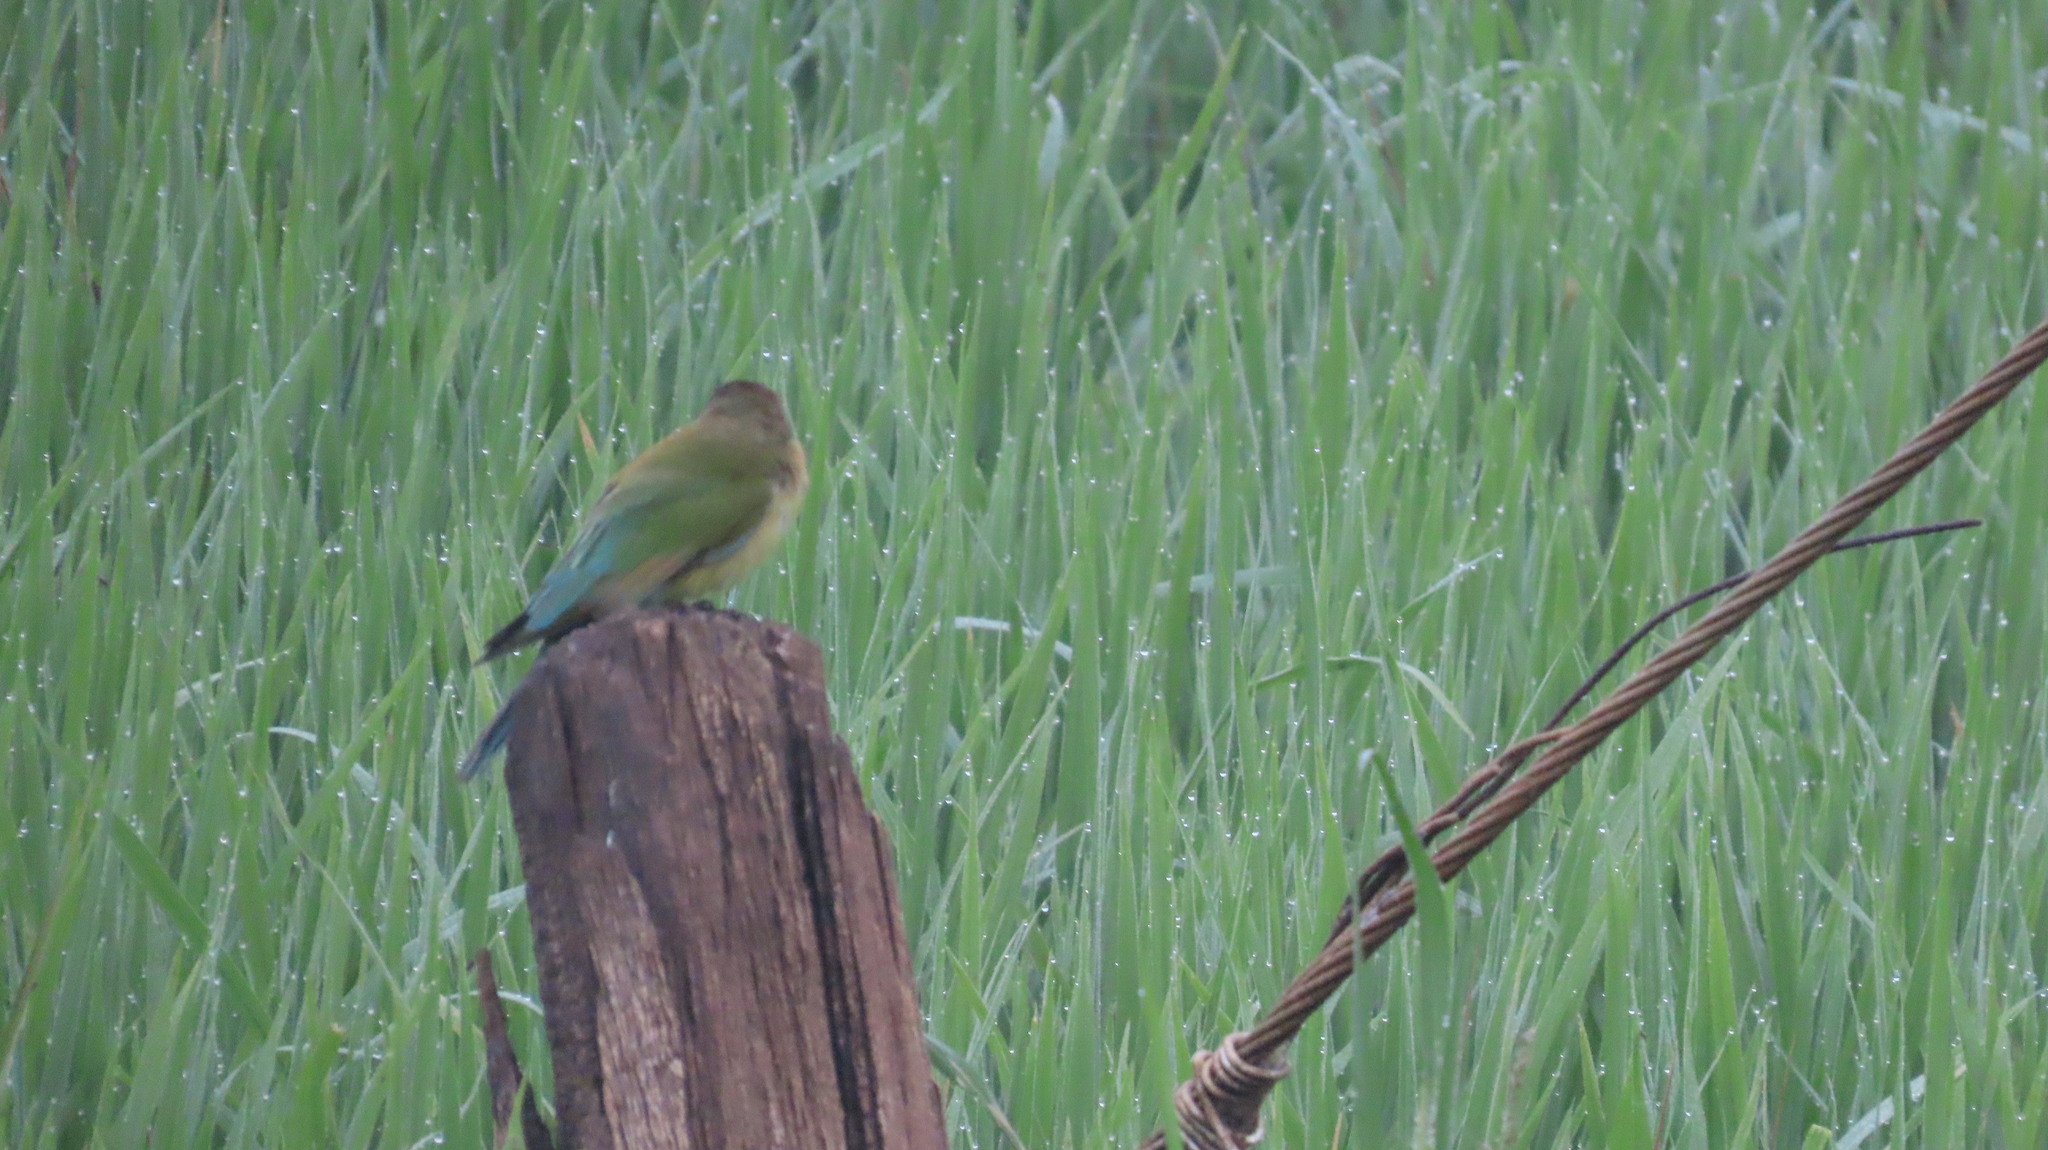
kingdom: Animalia
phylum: Chordata
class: Aves
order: Coraciiformes
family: Meropidae
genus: Merops
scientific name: Merops philippinus
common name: Blue-tailed bee-eater
